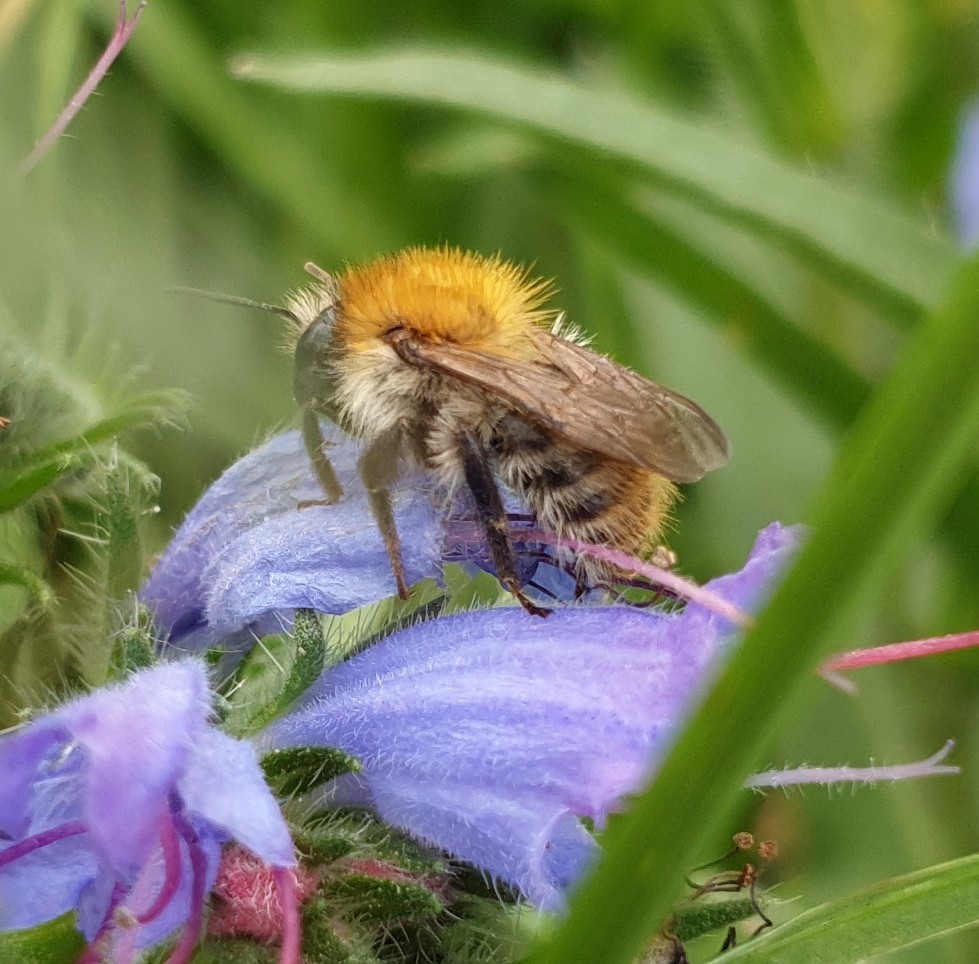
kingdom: Animalia
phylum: Arthropoda
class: Insecta
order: Hymenoptera
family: Apidae
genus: Bombus
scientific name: Bombus pascuorum
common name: Common carder bee
